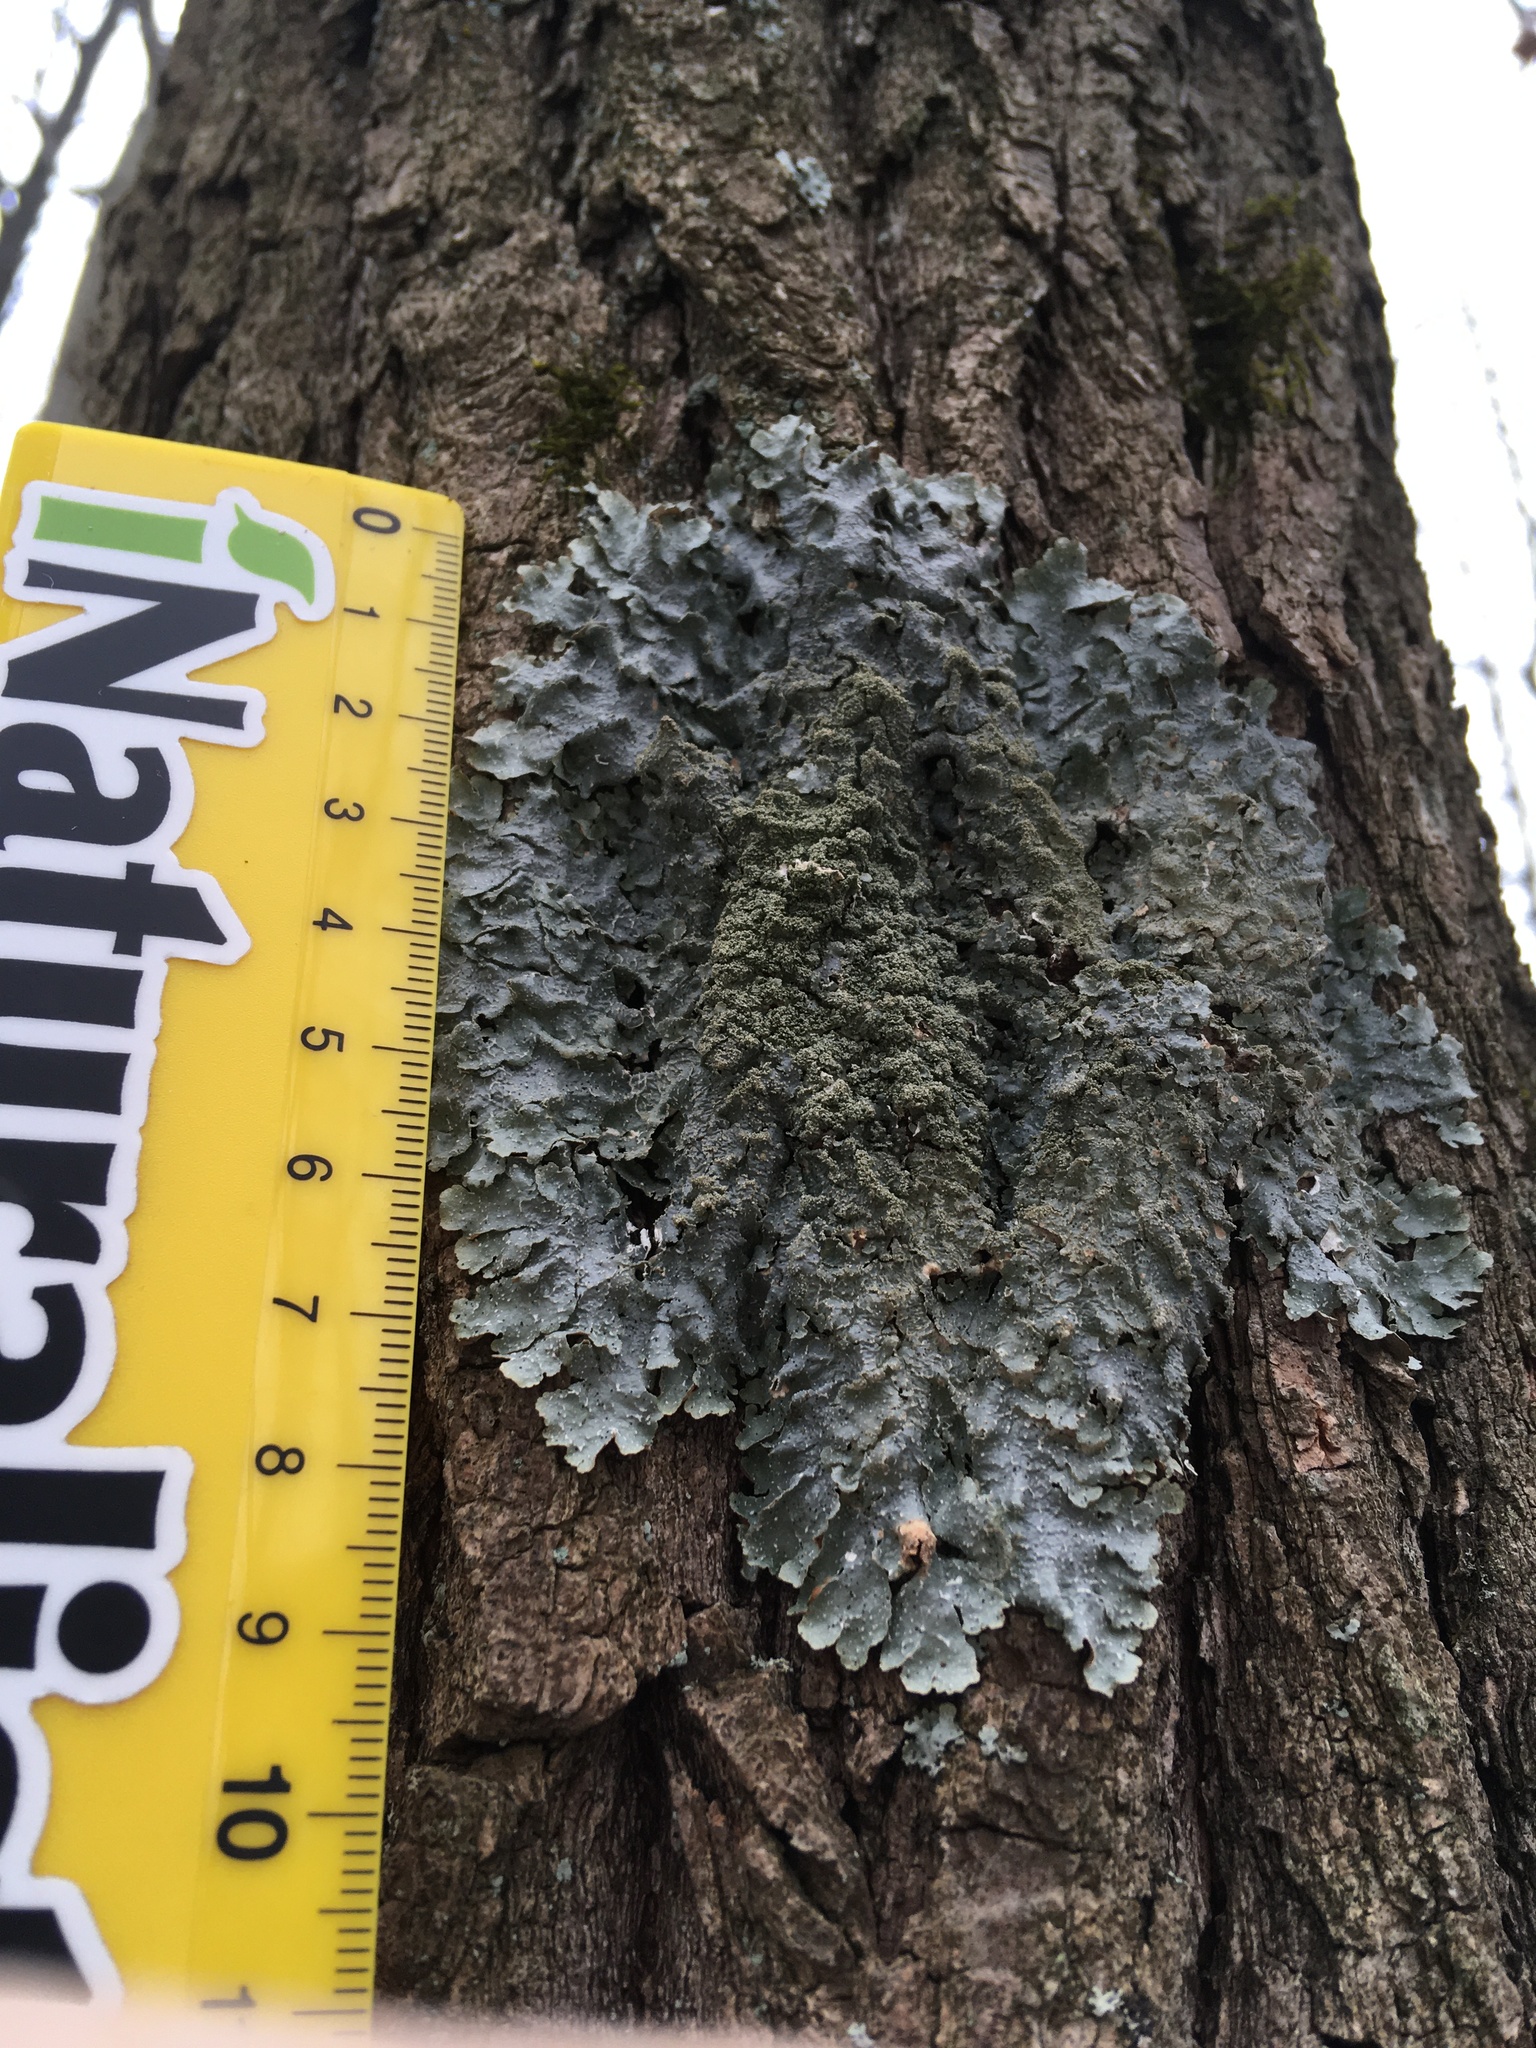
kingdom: Fungi
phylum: Ascomycota
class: Lecanoromycetes
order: Lecanorales
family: Parmeliaceae
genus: Punctelia
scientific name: Punctelia rudecta
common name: Rough speckled shield lichen
